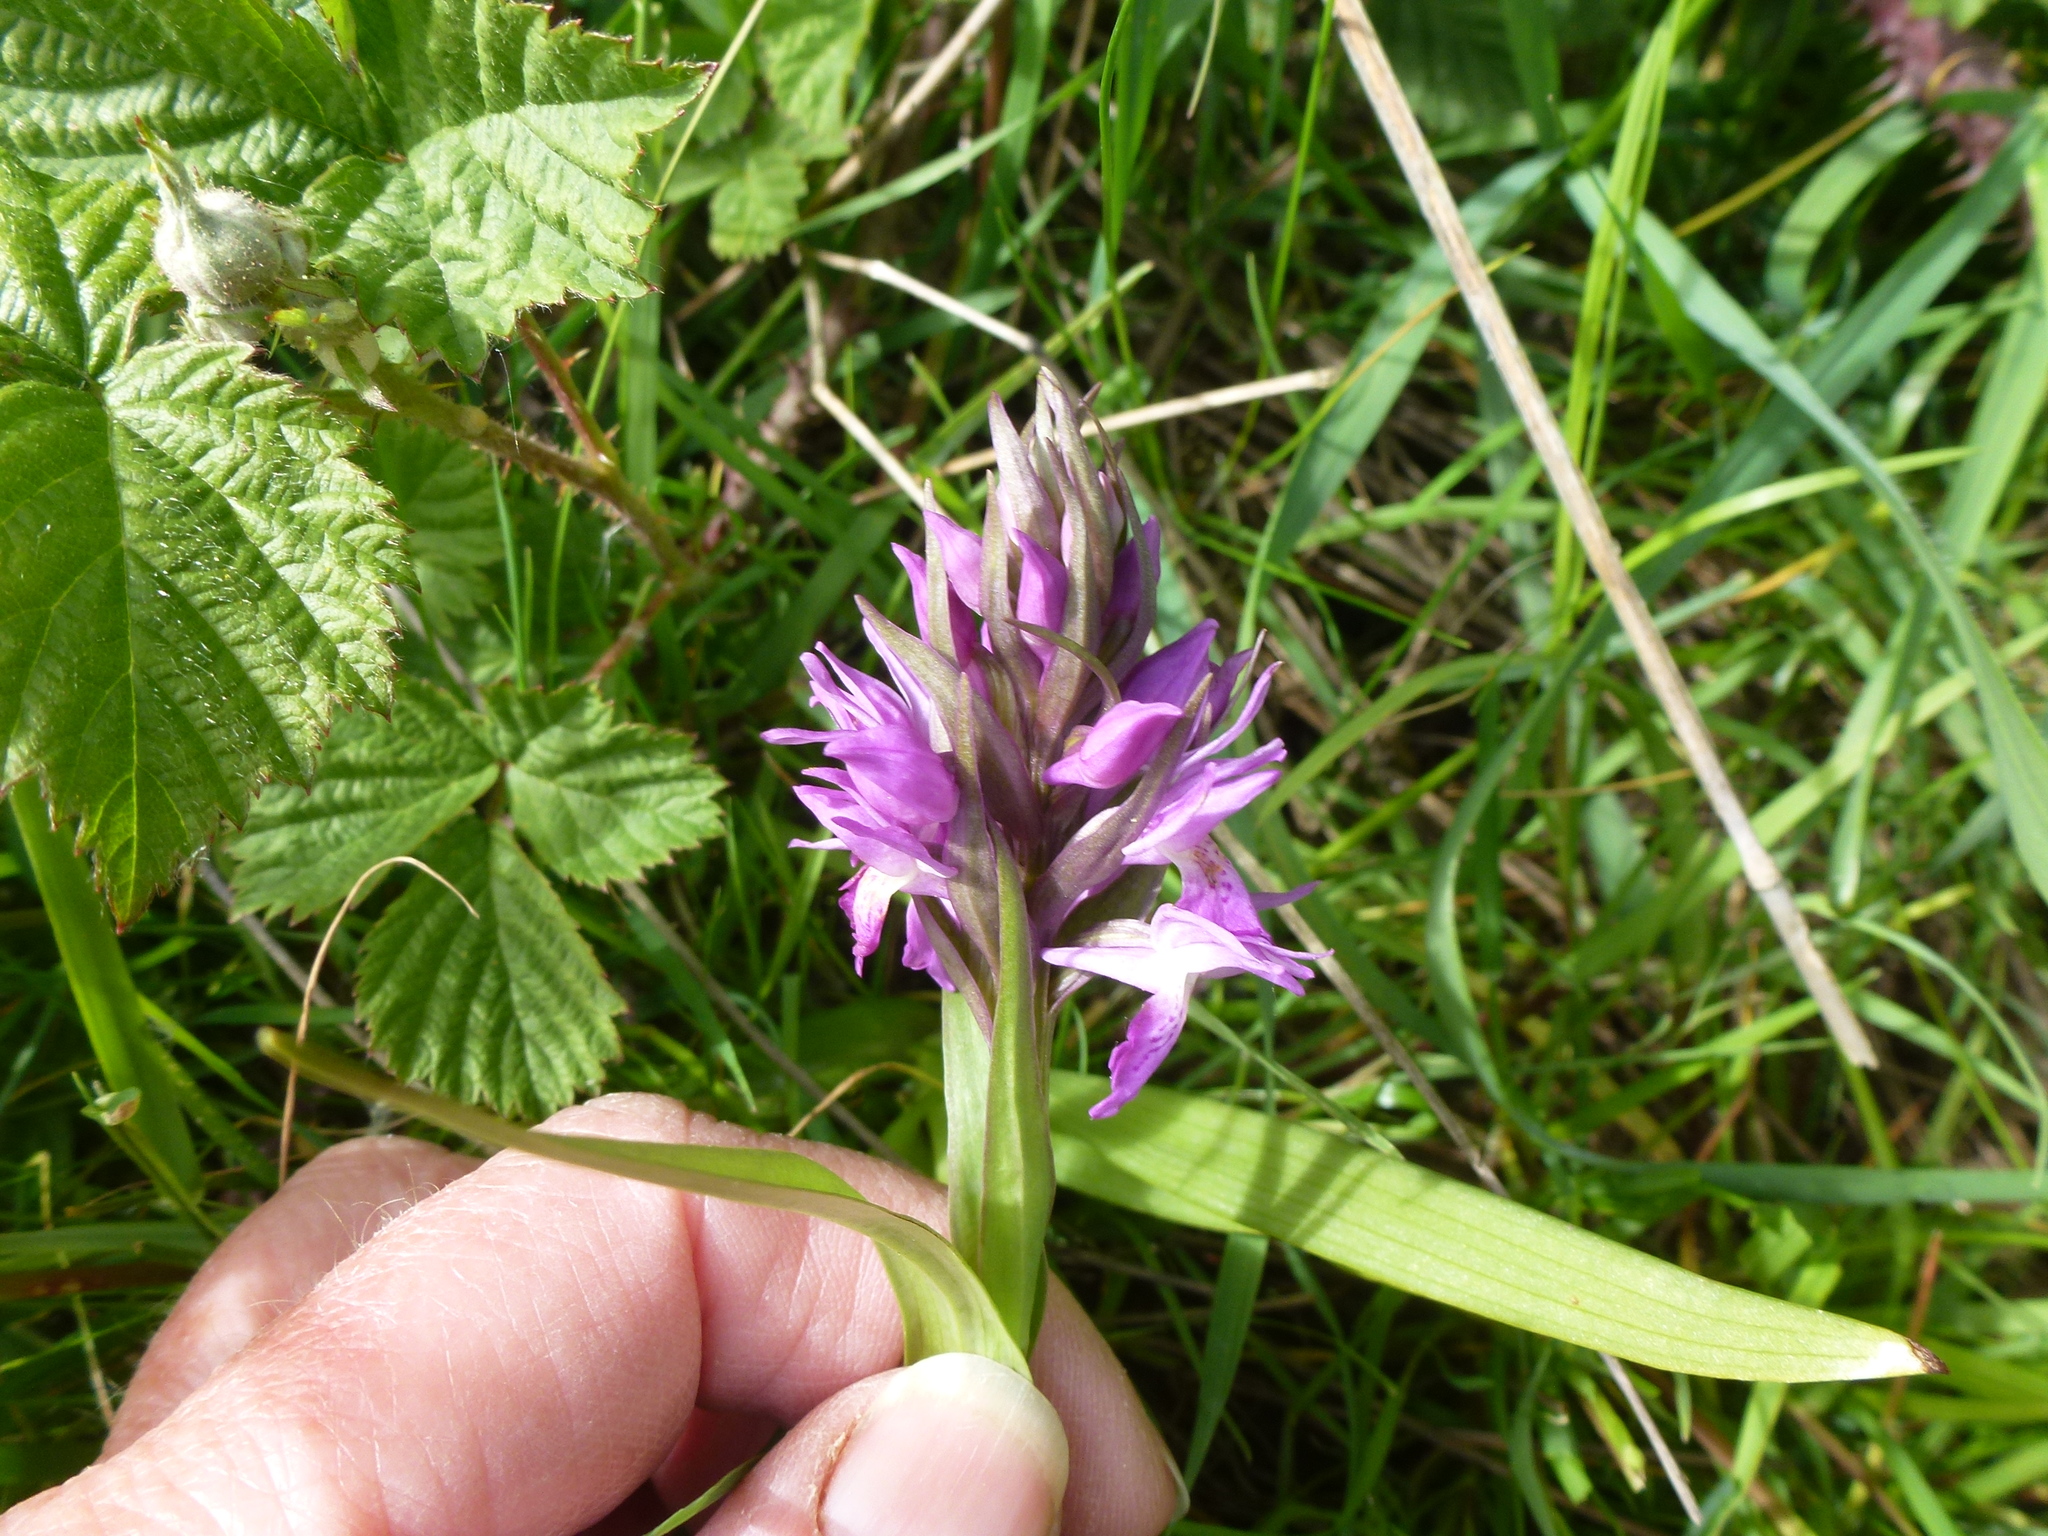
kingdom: Plantae
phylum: Tracheophyta
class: Liliopsida
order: Asparagales
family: Orchidaceae
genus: Dactylorhiza
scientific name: Dactylorhiza incarnata
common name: Early marsh-orchid
